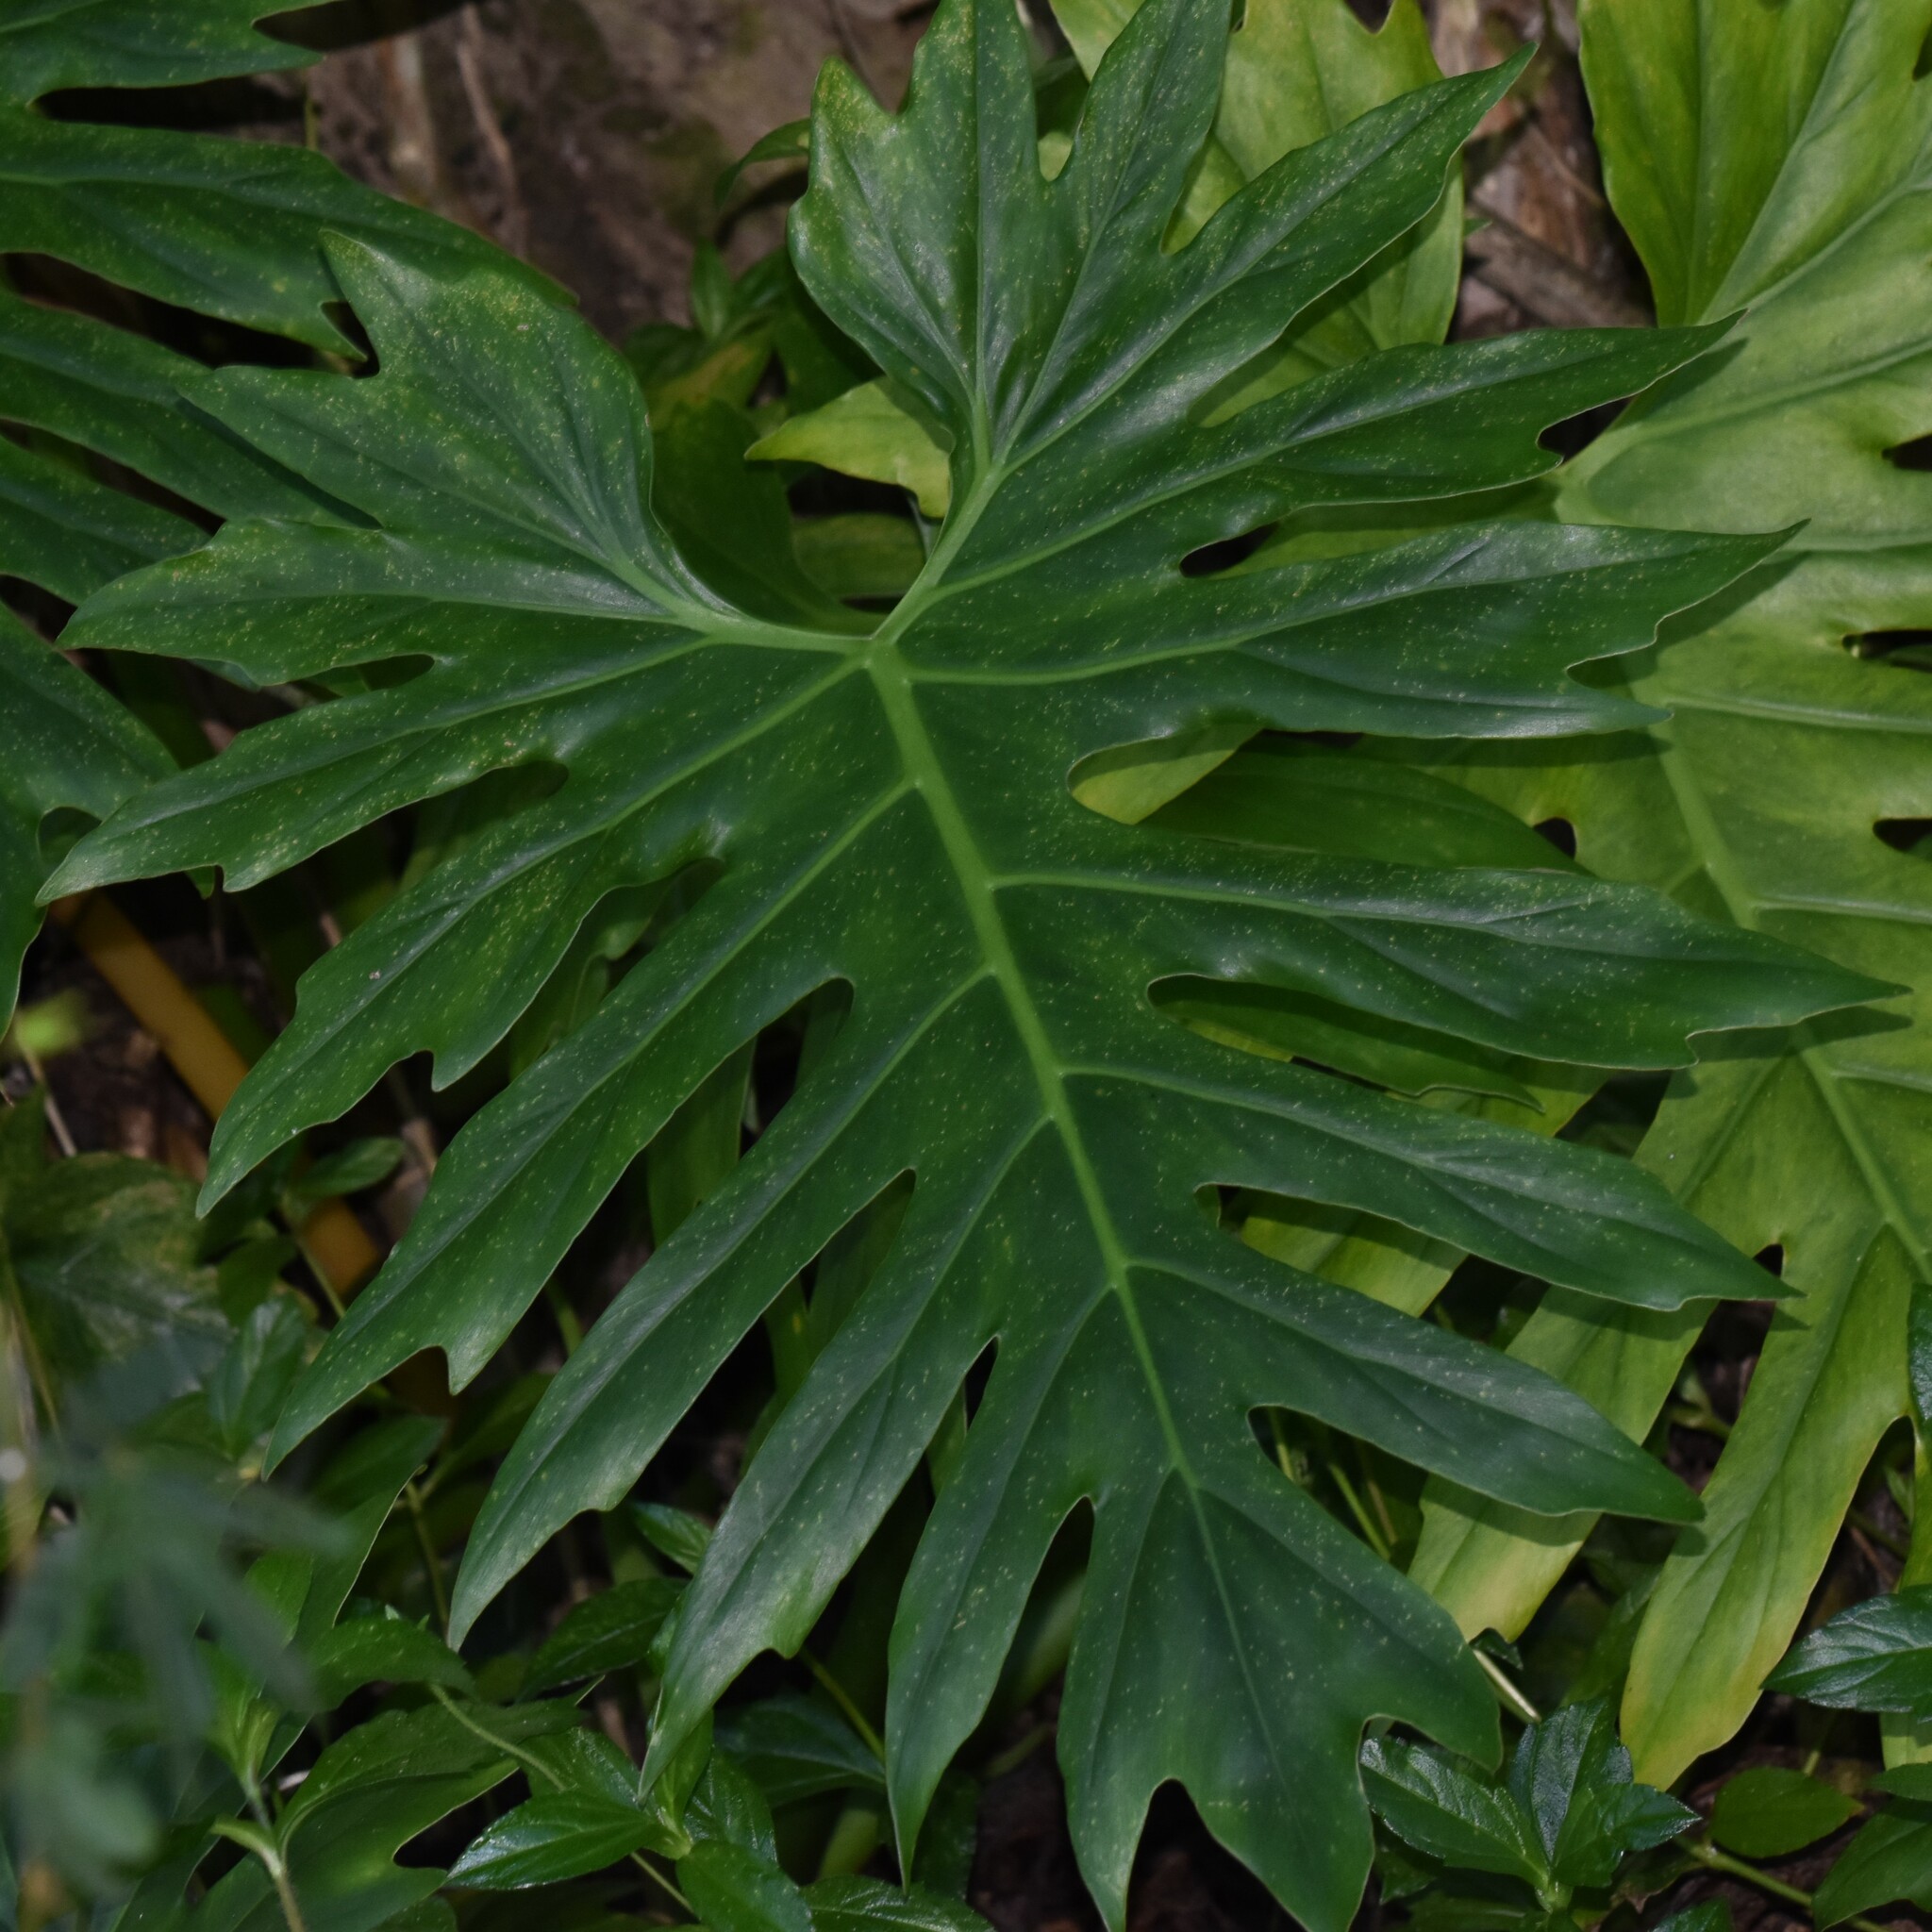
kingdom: Plantae
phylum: Tracheophyta
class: Liliopsida
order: Alismatales
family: Araceae
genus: Philodendron
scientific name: Philodendron radiatum
